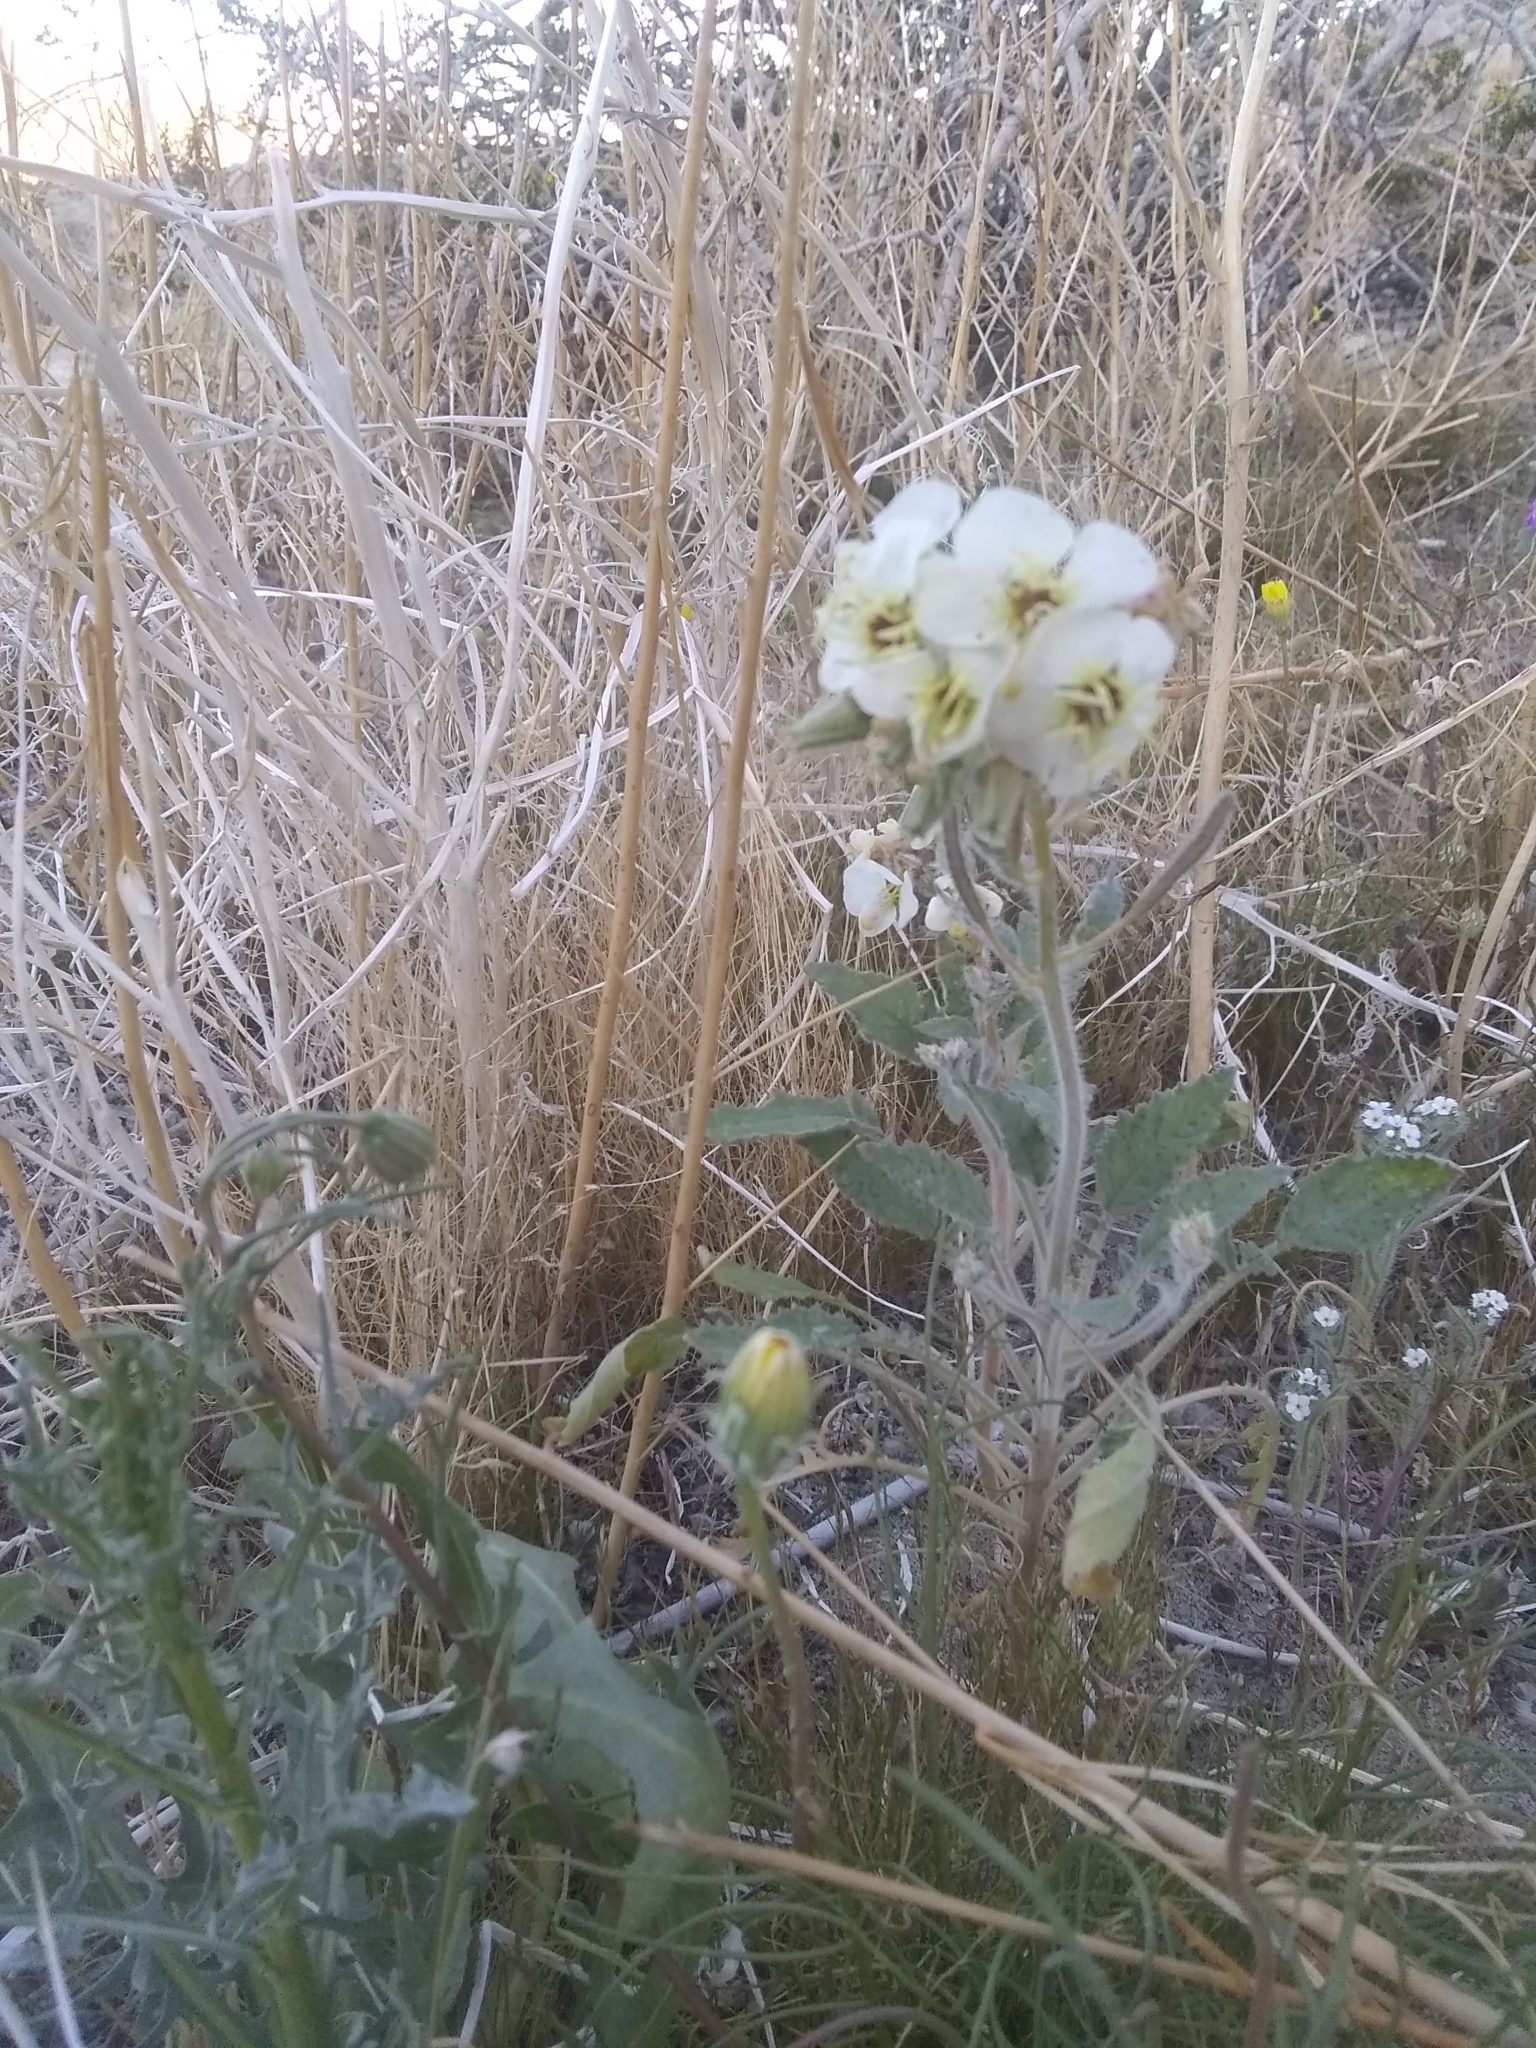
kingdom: Plantae
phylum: Tracheophyta
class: Magnoliopsida
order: Myrtales
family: Onagraceae
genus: Chylismia
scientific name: Chylismia claviformis
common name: Browneyes
